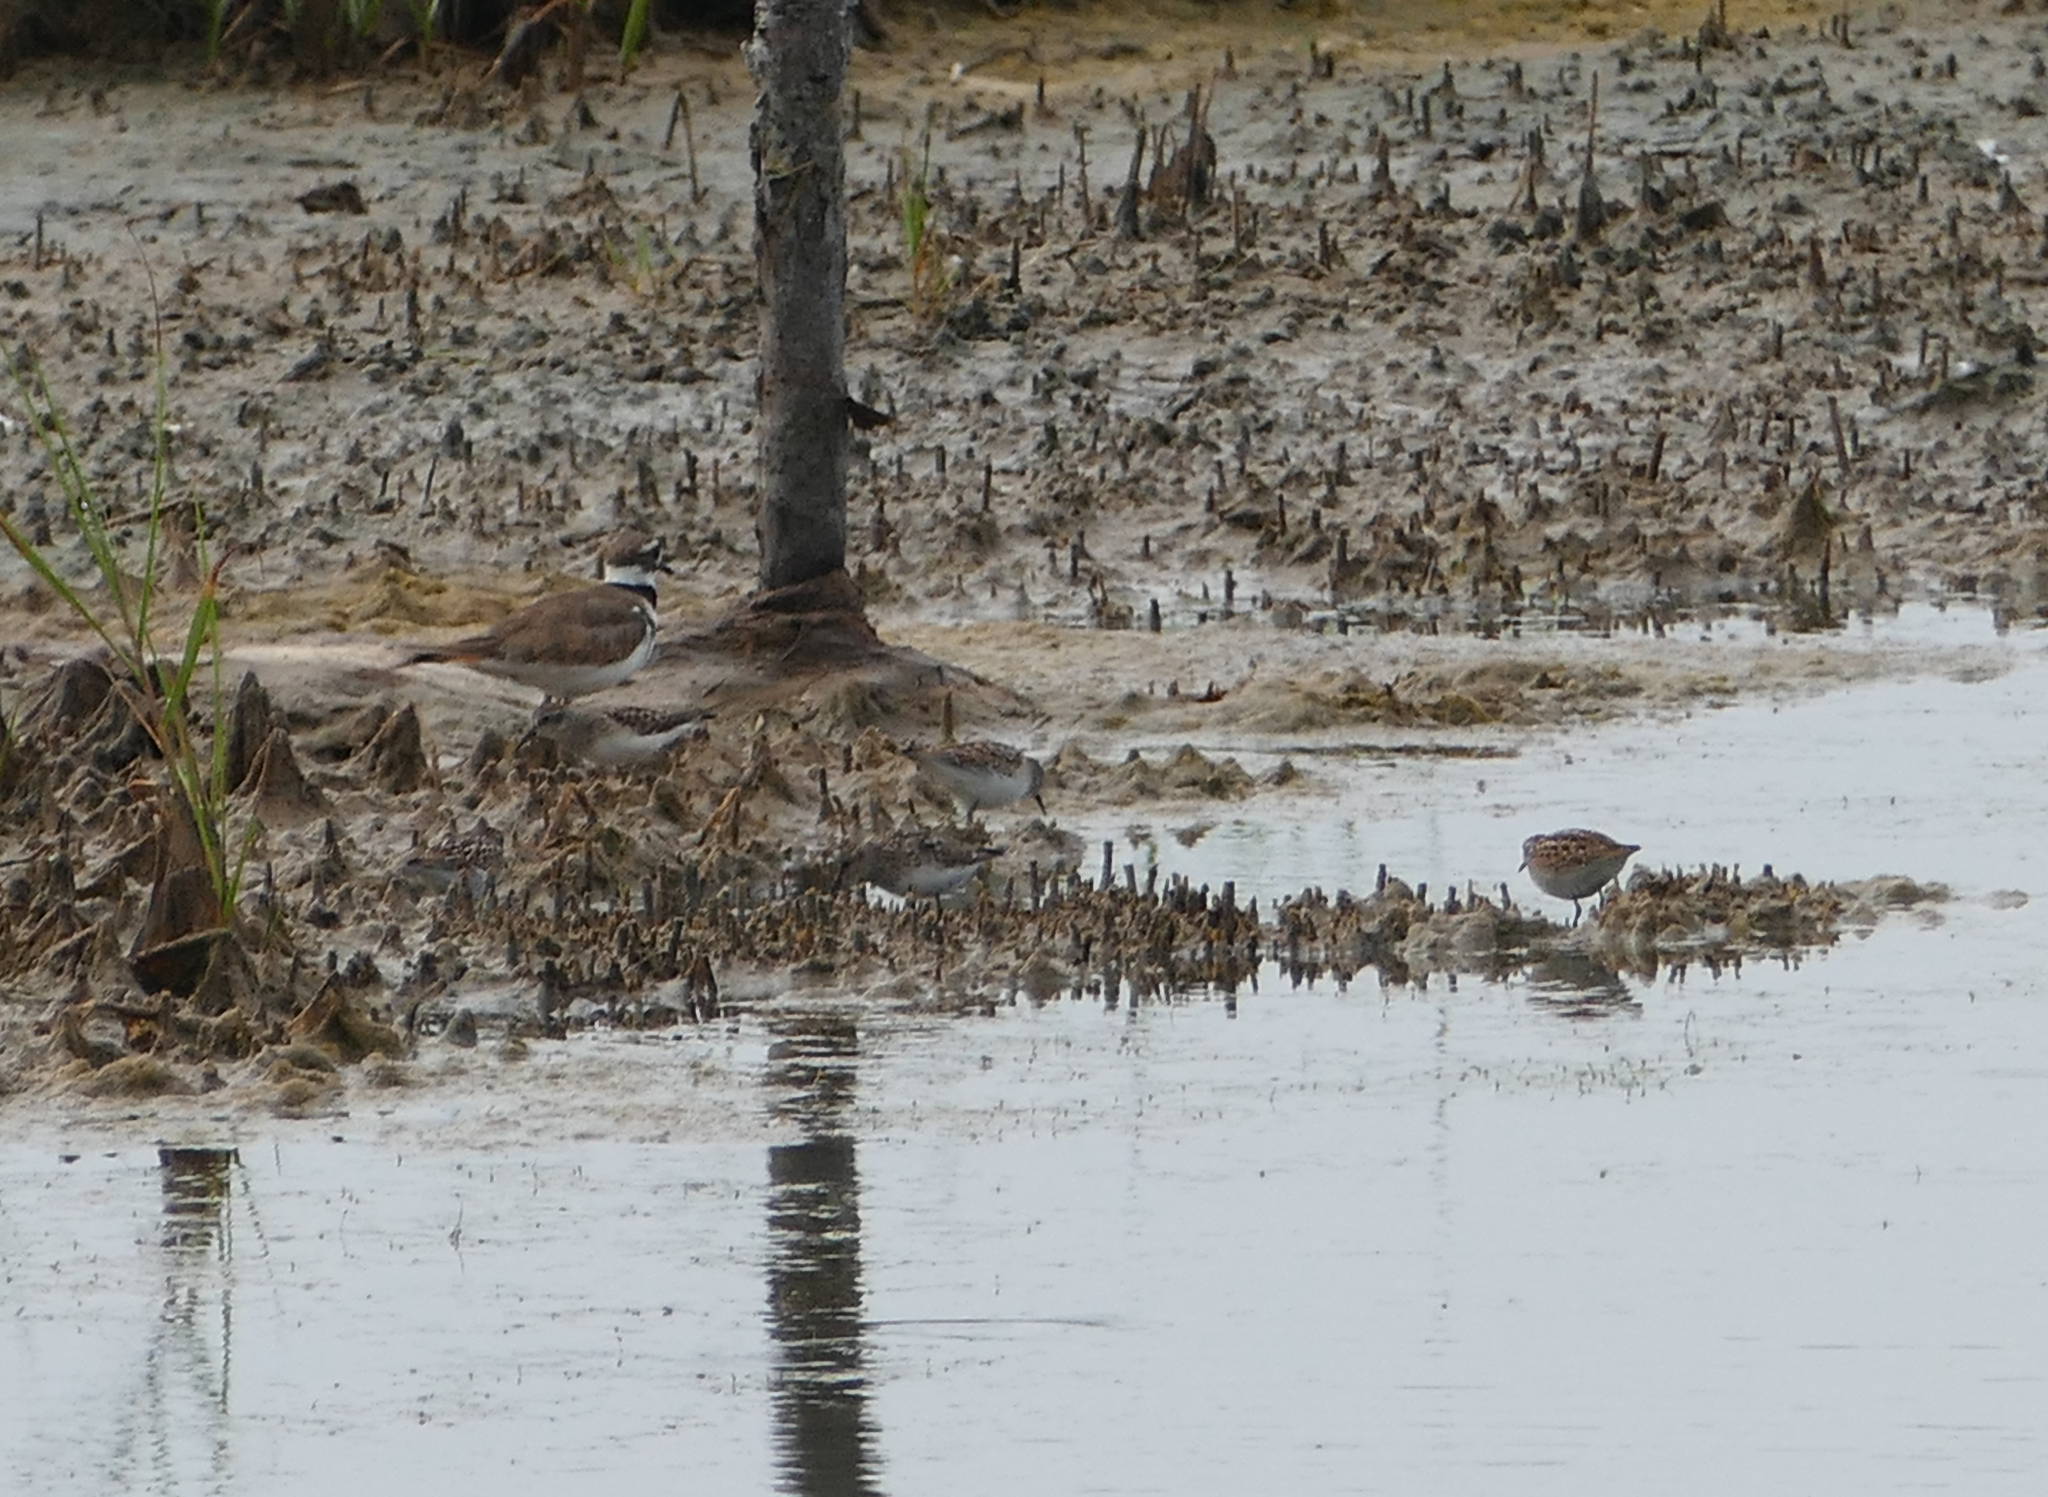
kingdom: Animalia
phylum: Chordata
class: Aves
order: Charadriiformes
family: Scolopacidae
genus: Calidris
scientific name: Calidris minutilla
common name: Least sandpiper
